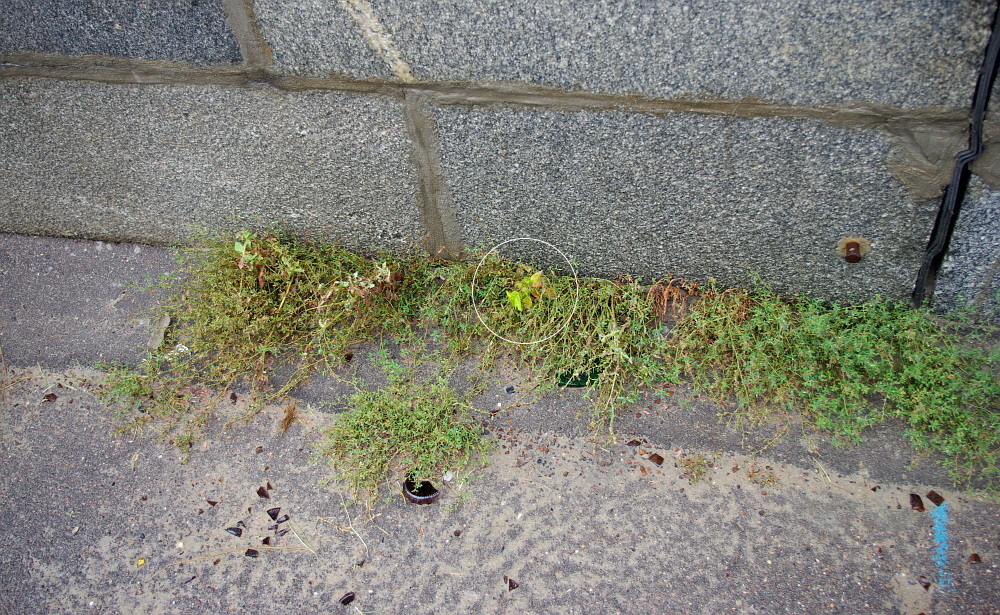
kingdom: Plantae
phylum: Tracheophyta
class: Magnoliopsida
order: Sapindales
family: Sapindaceae
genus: Acer
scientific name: Acer negundo
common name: Ashleaf maple
